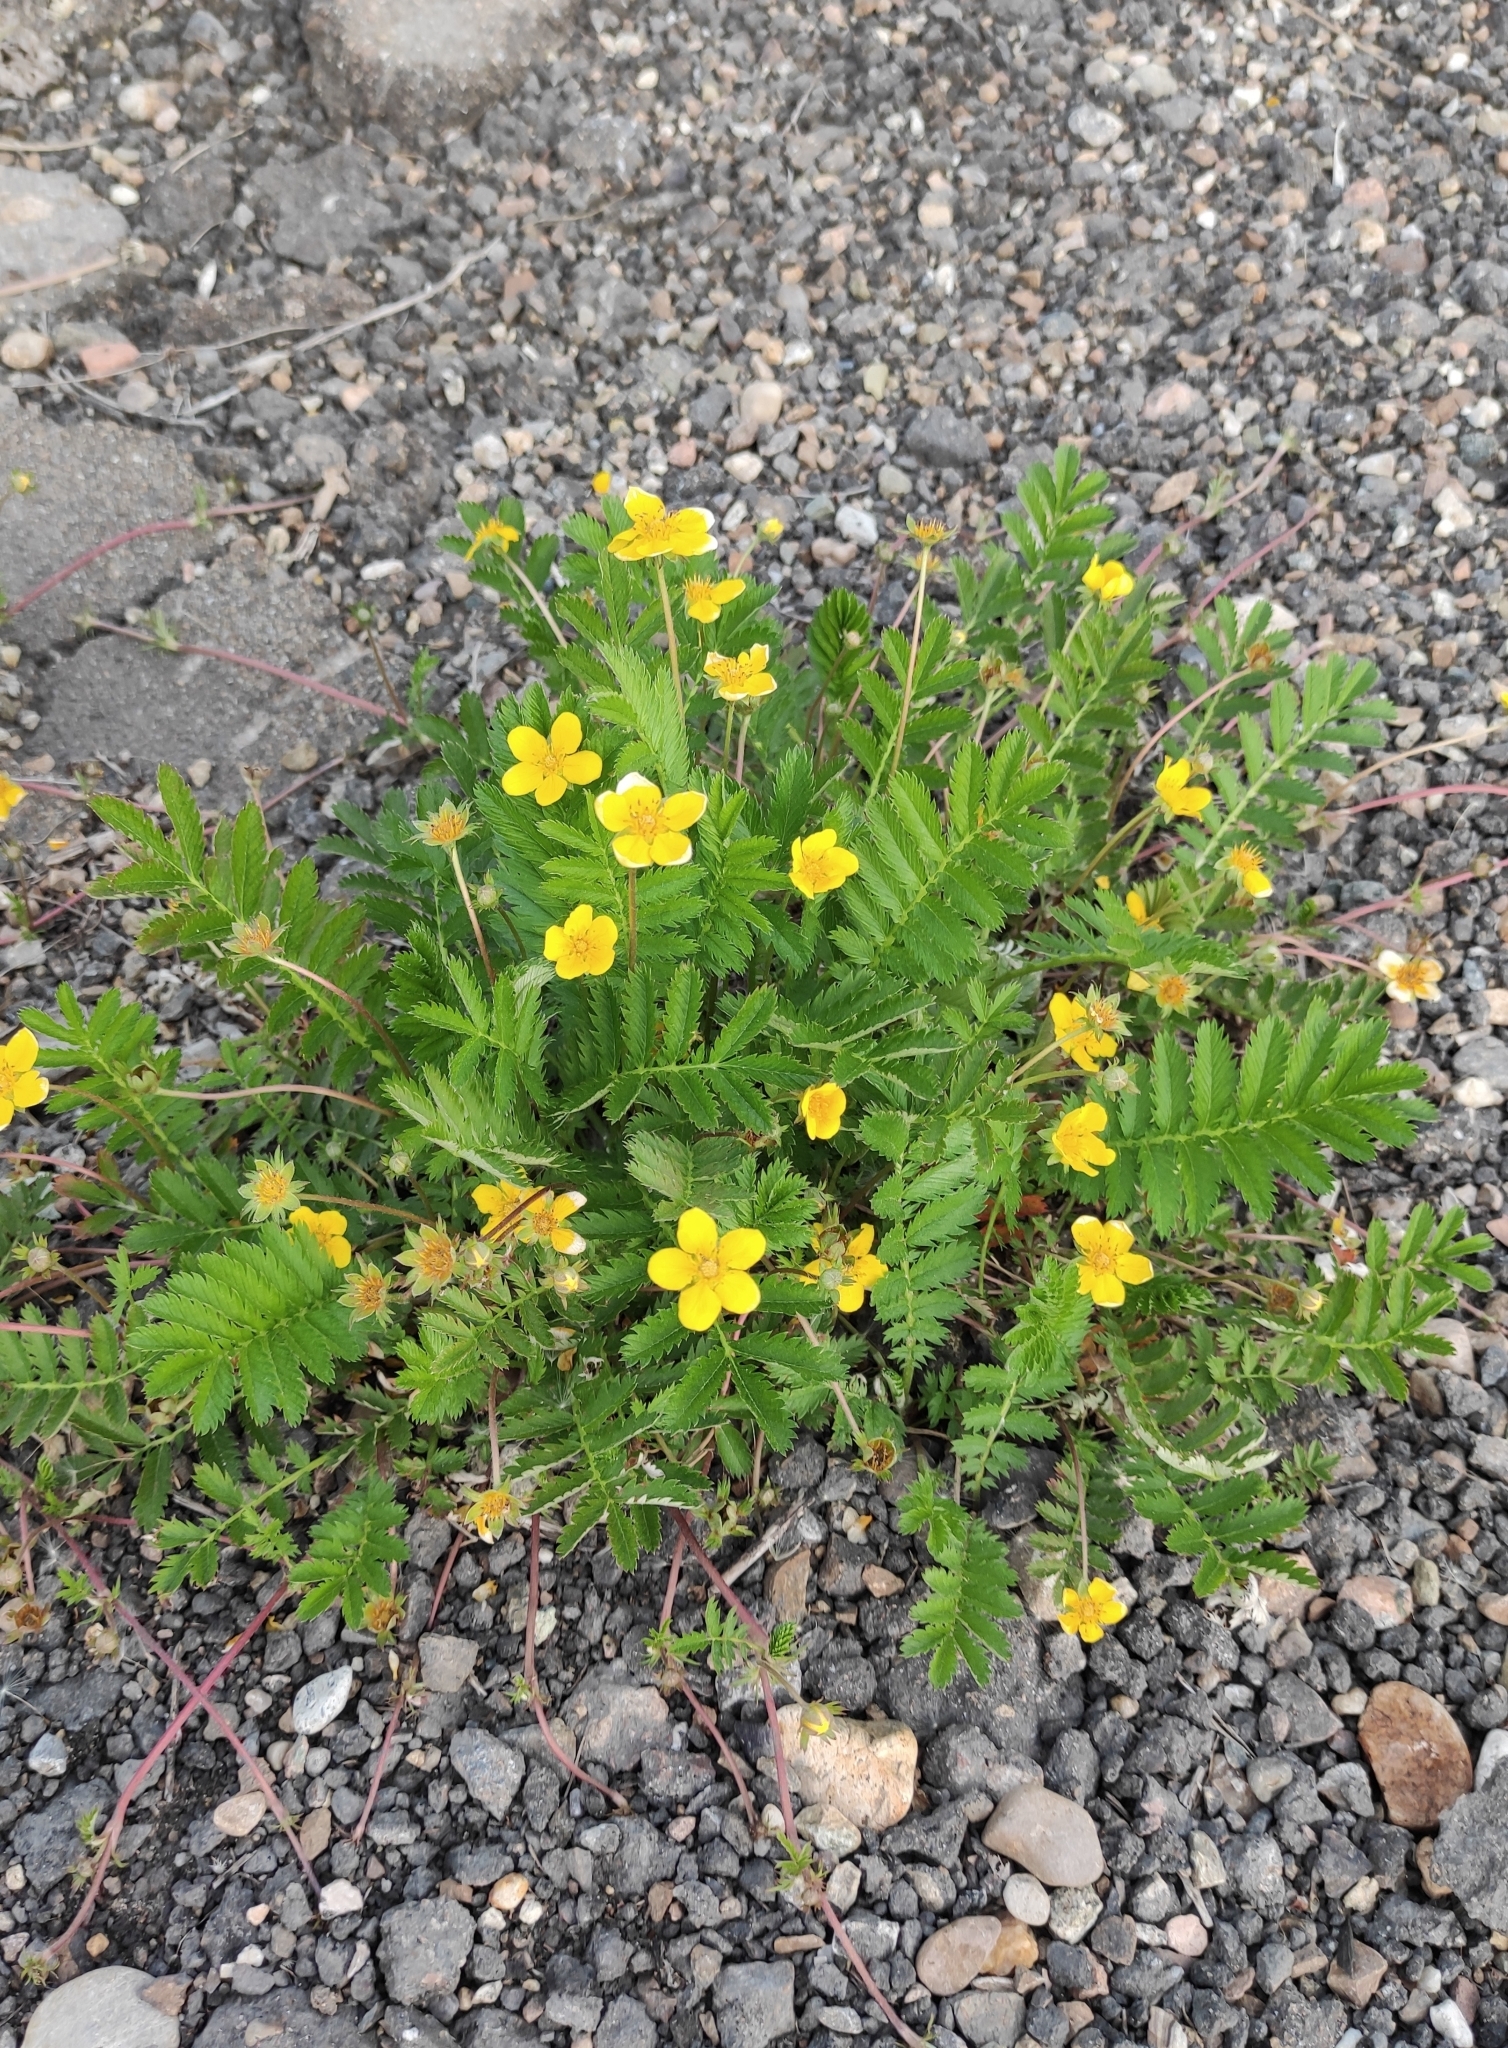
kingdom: Plantae
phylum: Tracheophyta
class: Magnoliopsida
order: Rosales
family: Rosaceae
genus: Argentina
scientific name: Argentina anserina
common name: Common silverweed
